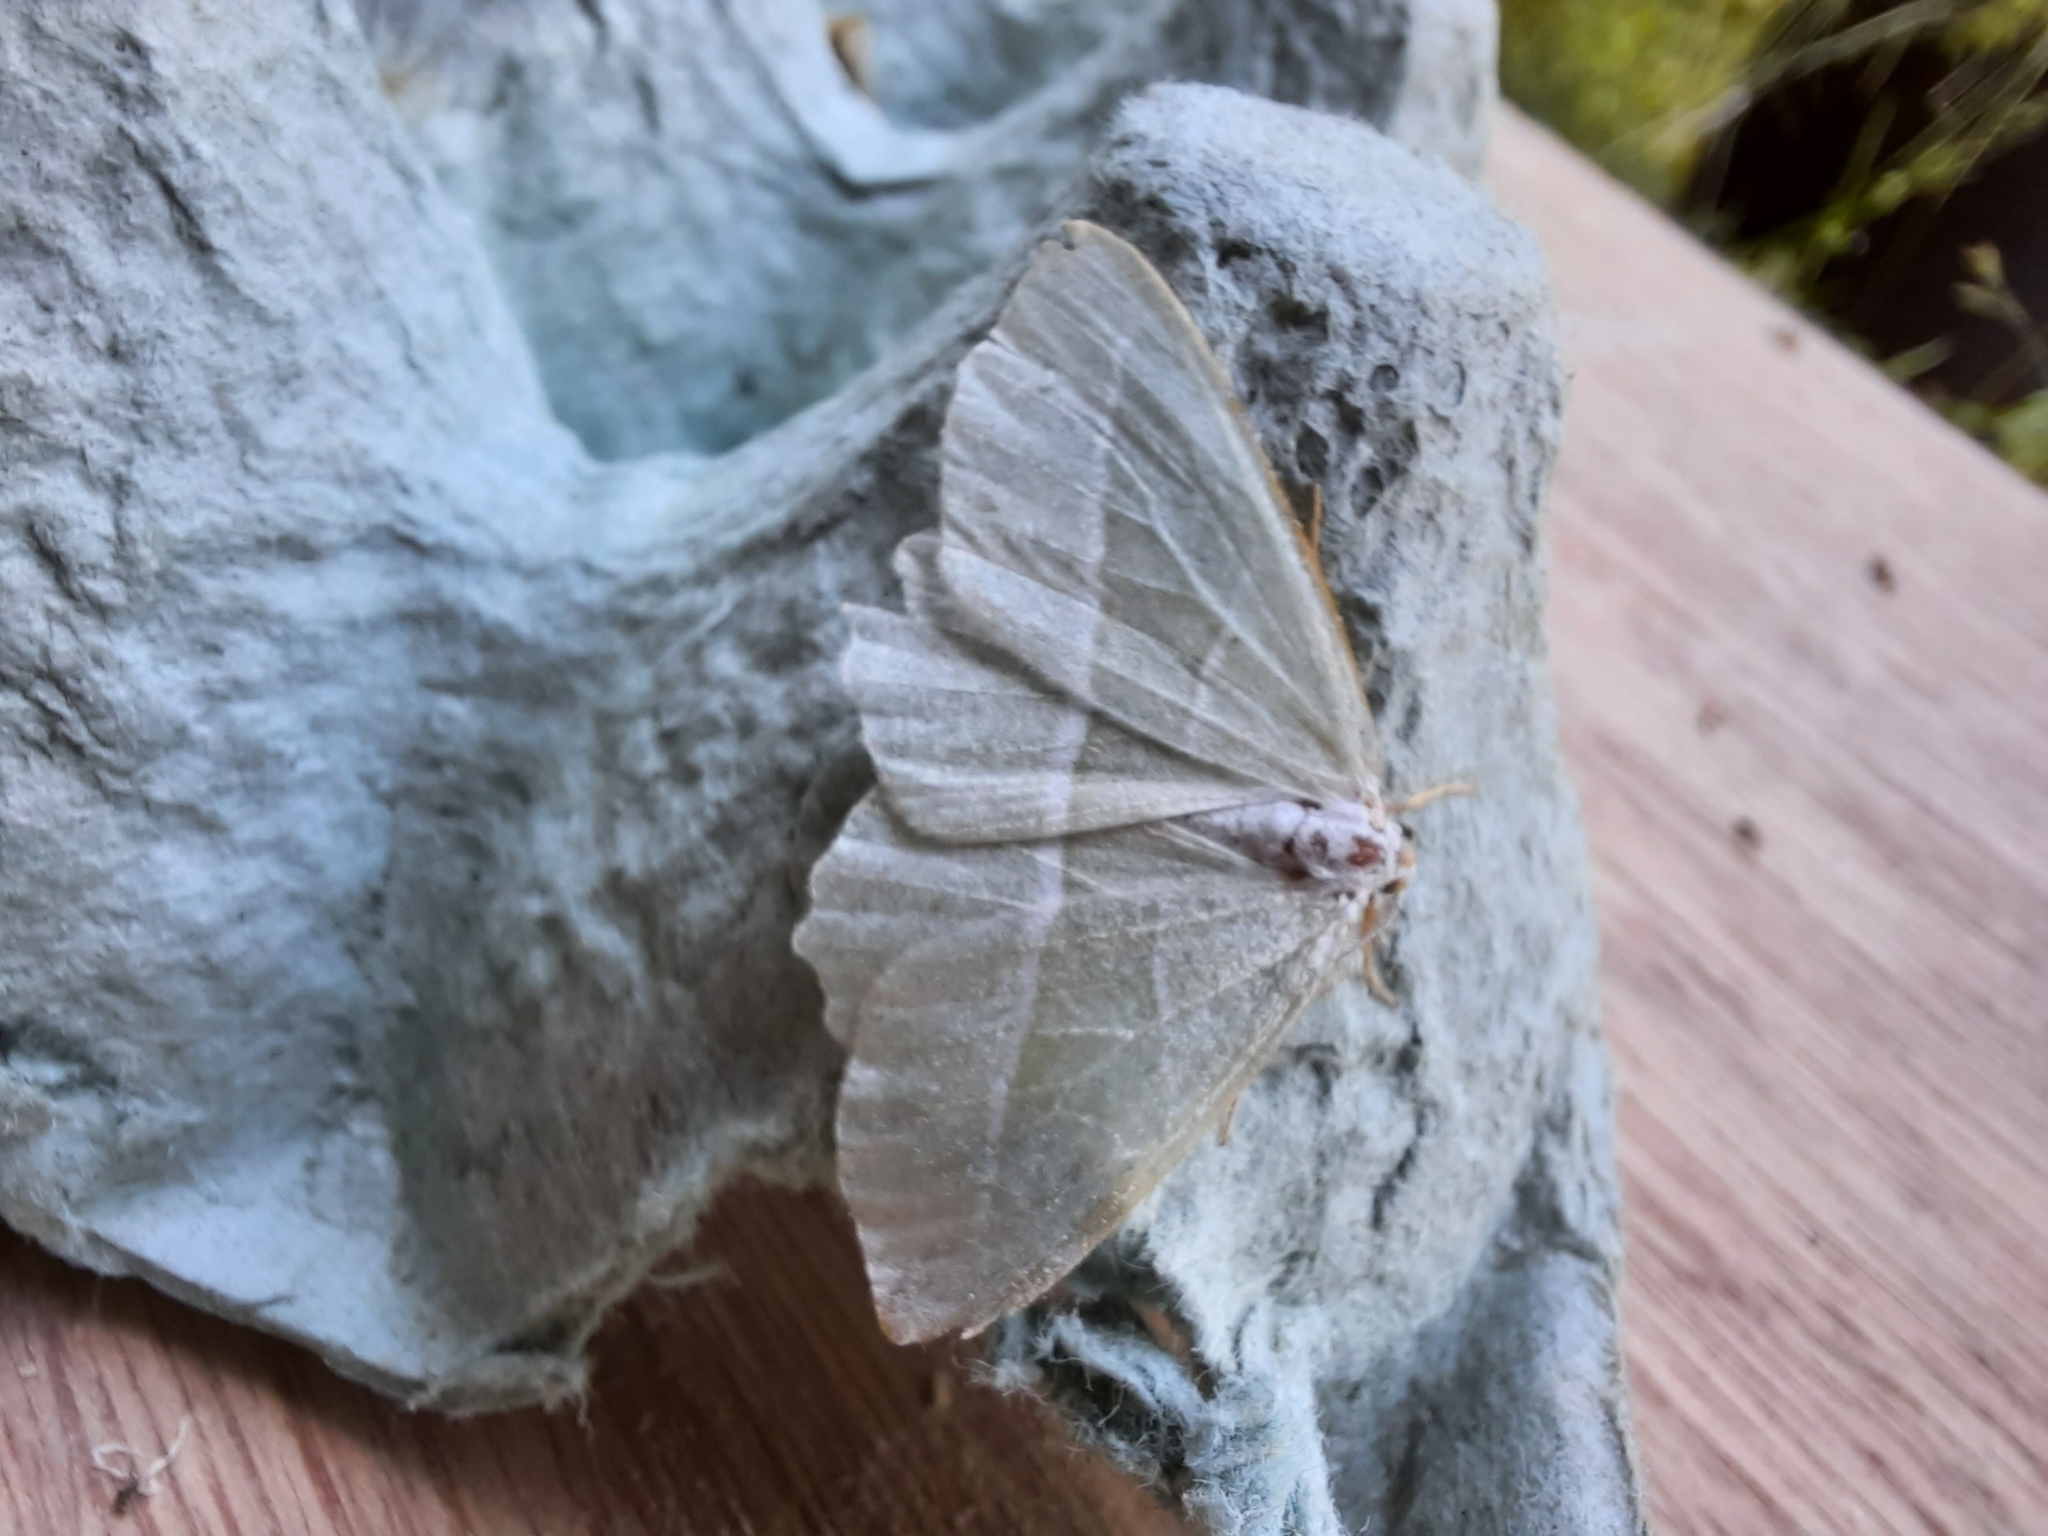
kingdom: Animalia
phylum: Arthropoda
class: Insecta
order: Lepidoptera
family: Geometridae
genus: Campaea
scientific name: Campaea margaritaria
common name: Light emerald
